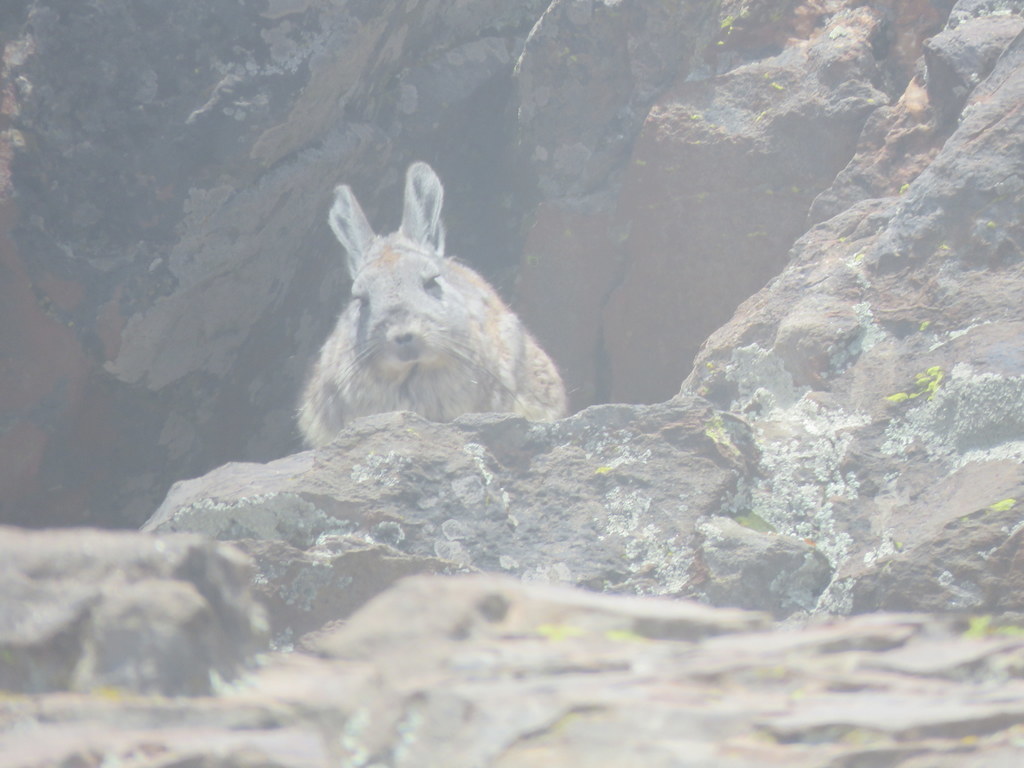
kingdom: Animalia
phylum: Chordata
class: Mammalia
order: Rodentia
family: Chinchillidae
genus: Lagidium
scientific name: Lagidium viscacia
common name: Southern viscacha
